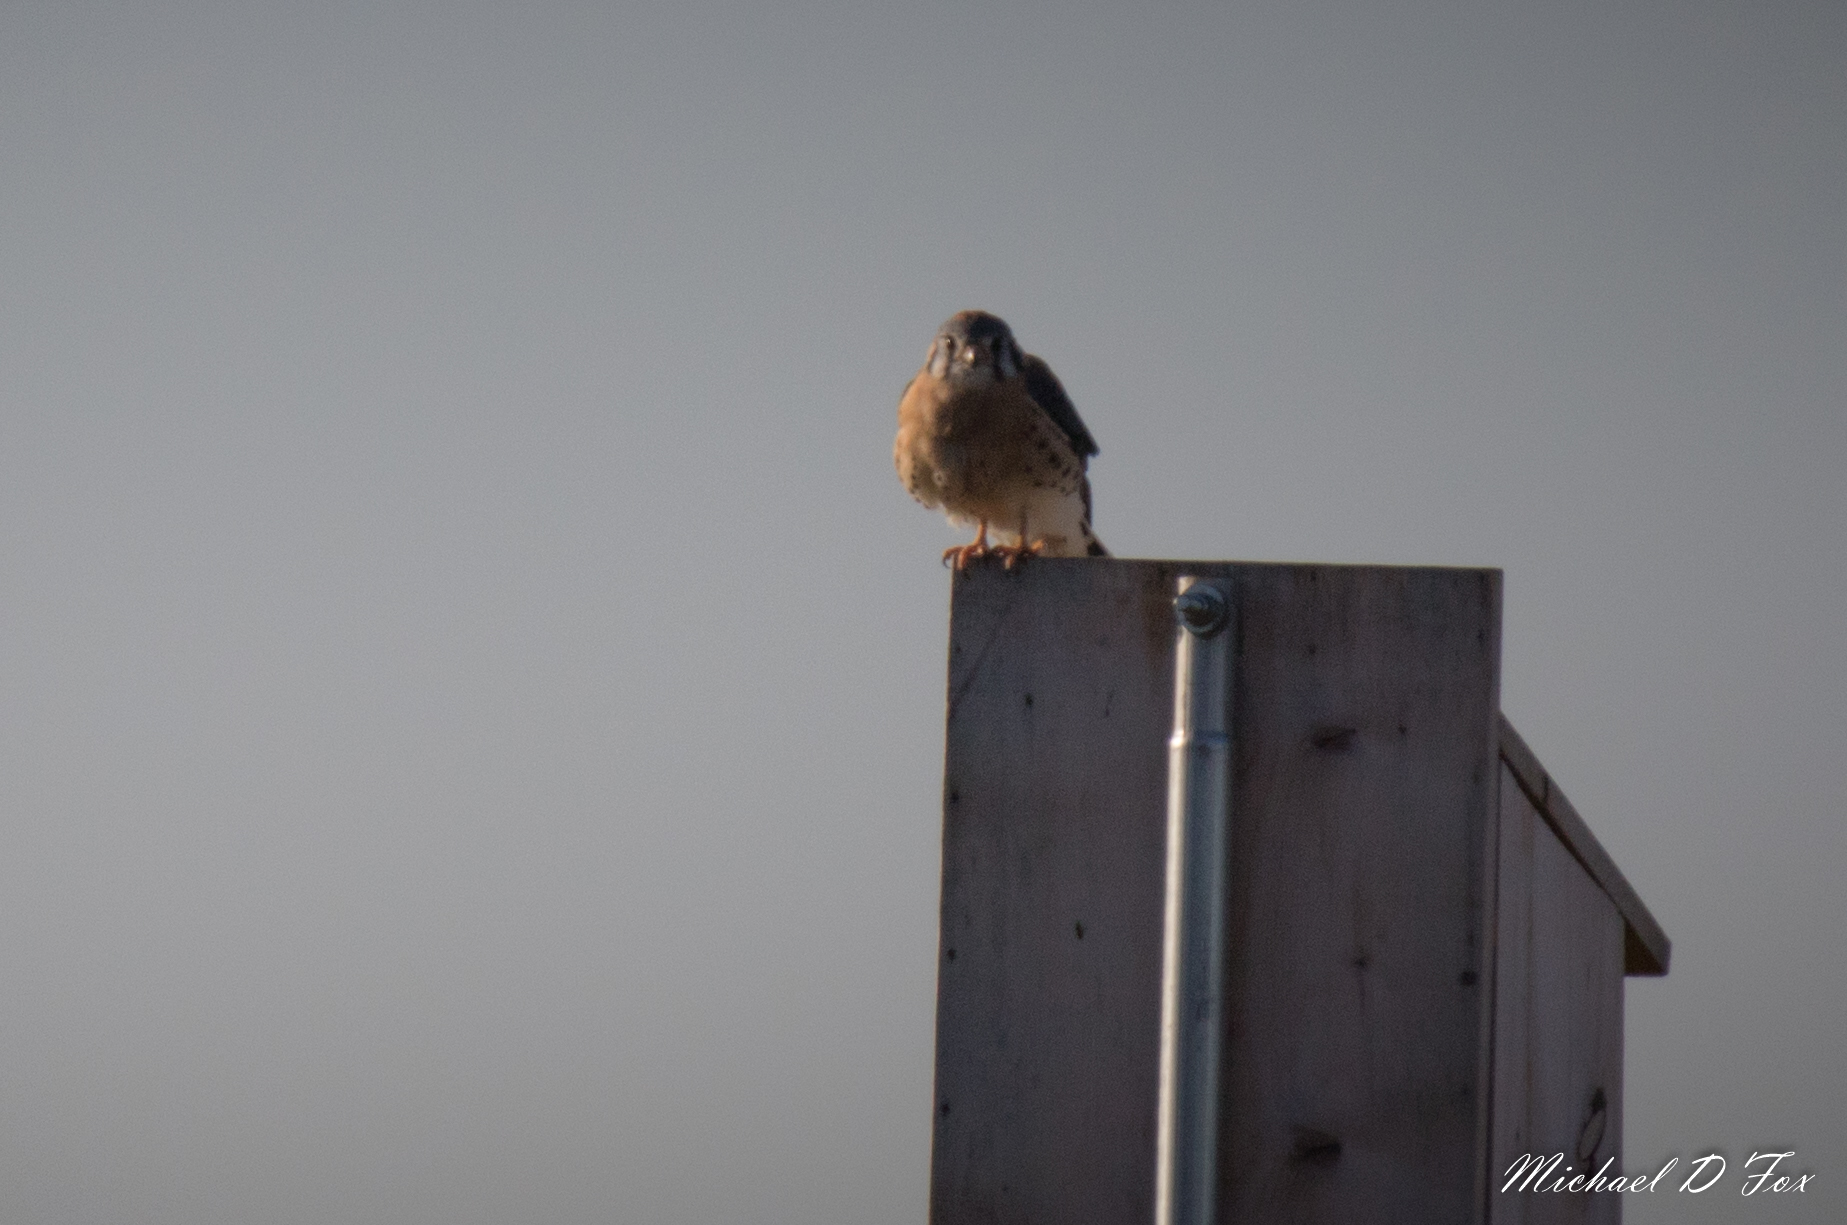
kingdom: Animalia
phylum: Chordata
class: Aves
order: Falconiformes
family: Falconidae
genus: Falco
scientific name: Falco sparverius
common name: American kestrel
